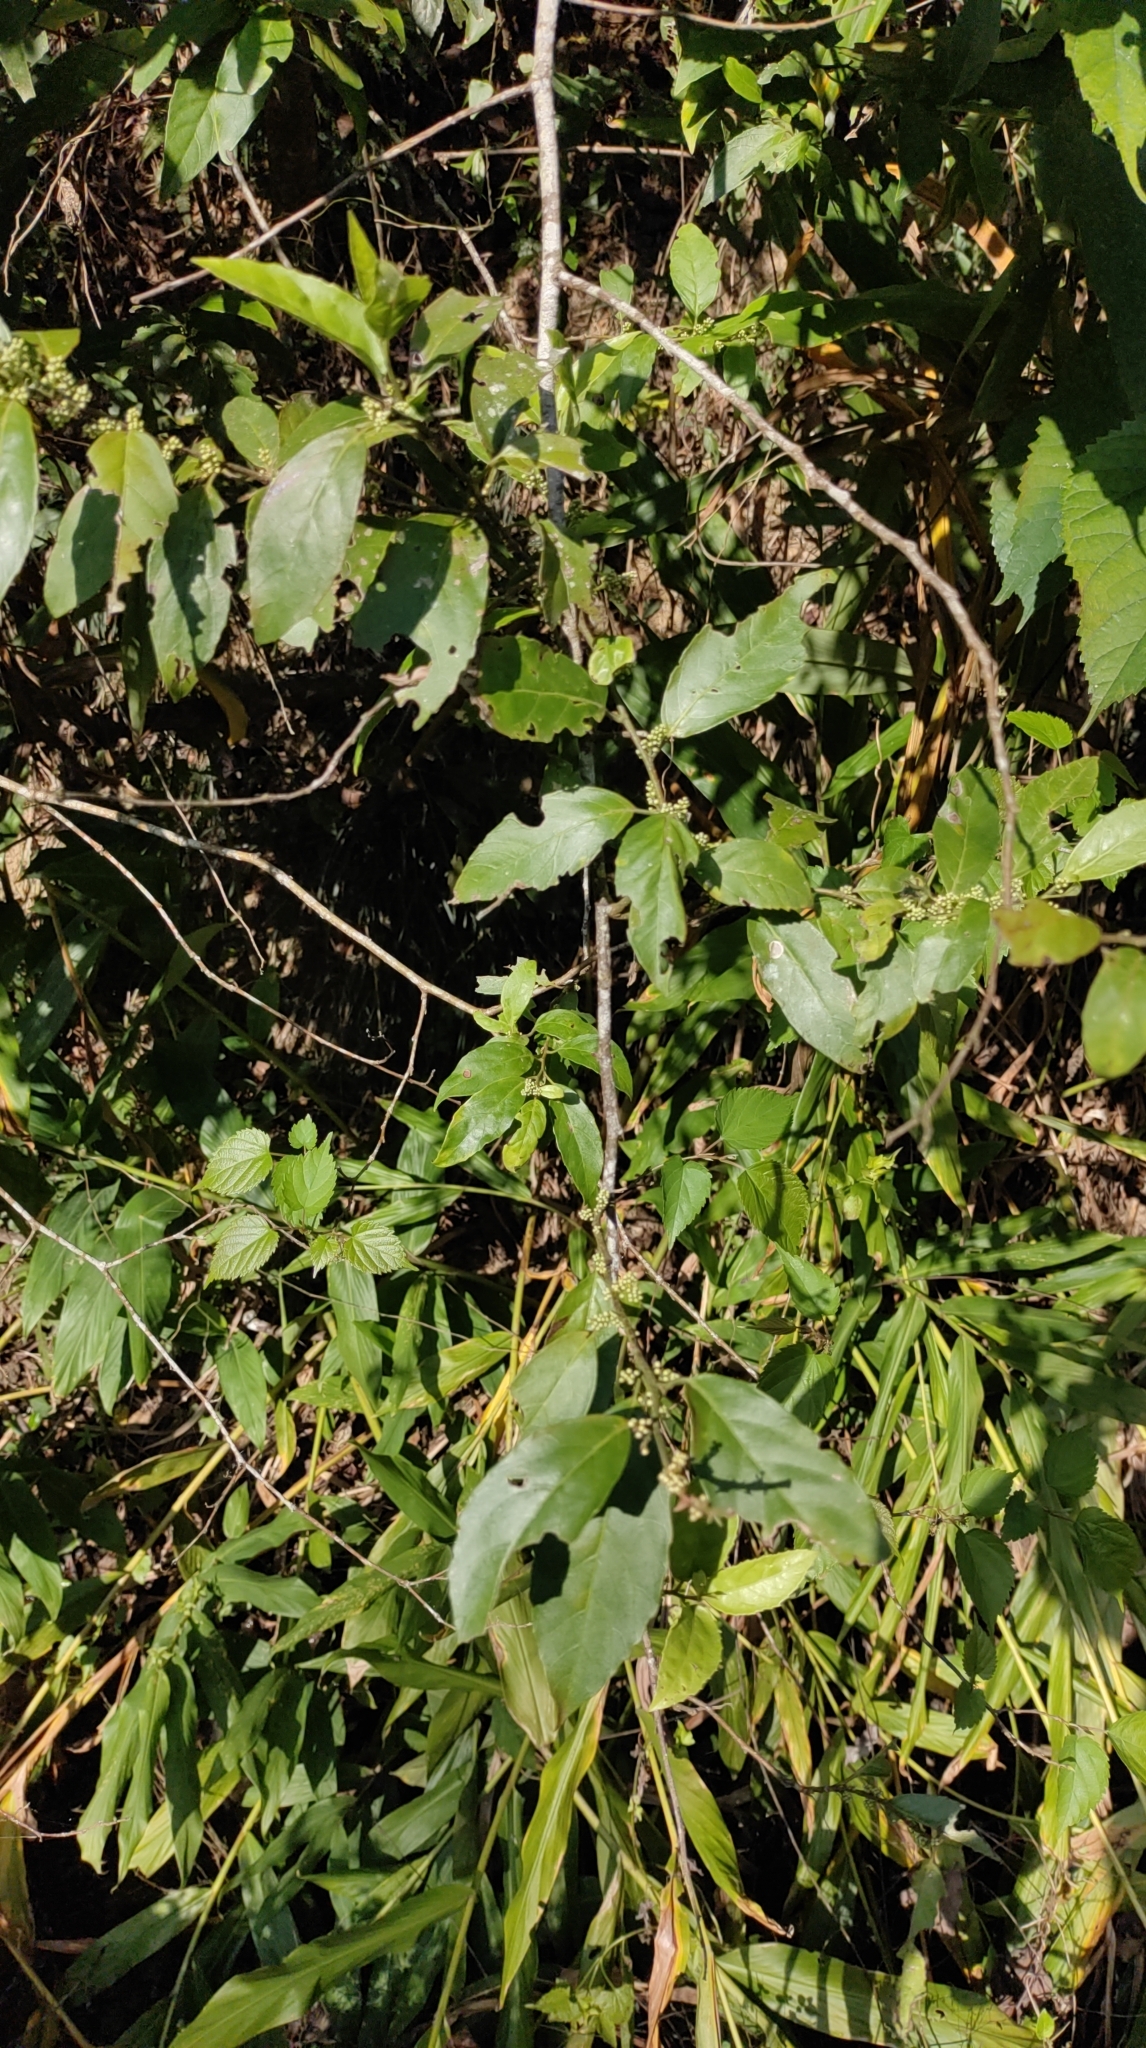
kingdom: Plantae
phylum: Tracheophyta
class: Magnoliopsida
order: Ericales
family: Primulaceae
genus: Maesa
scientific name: Maesa perlaria
